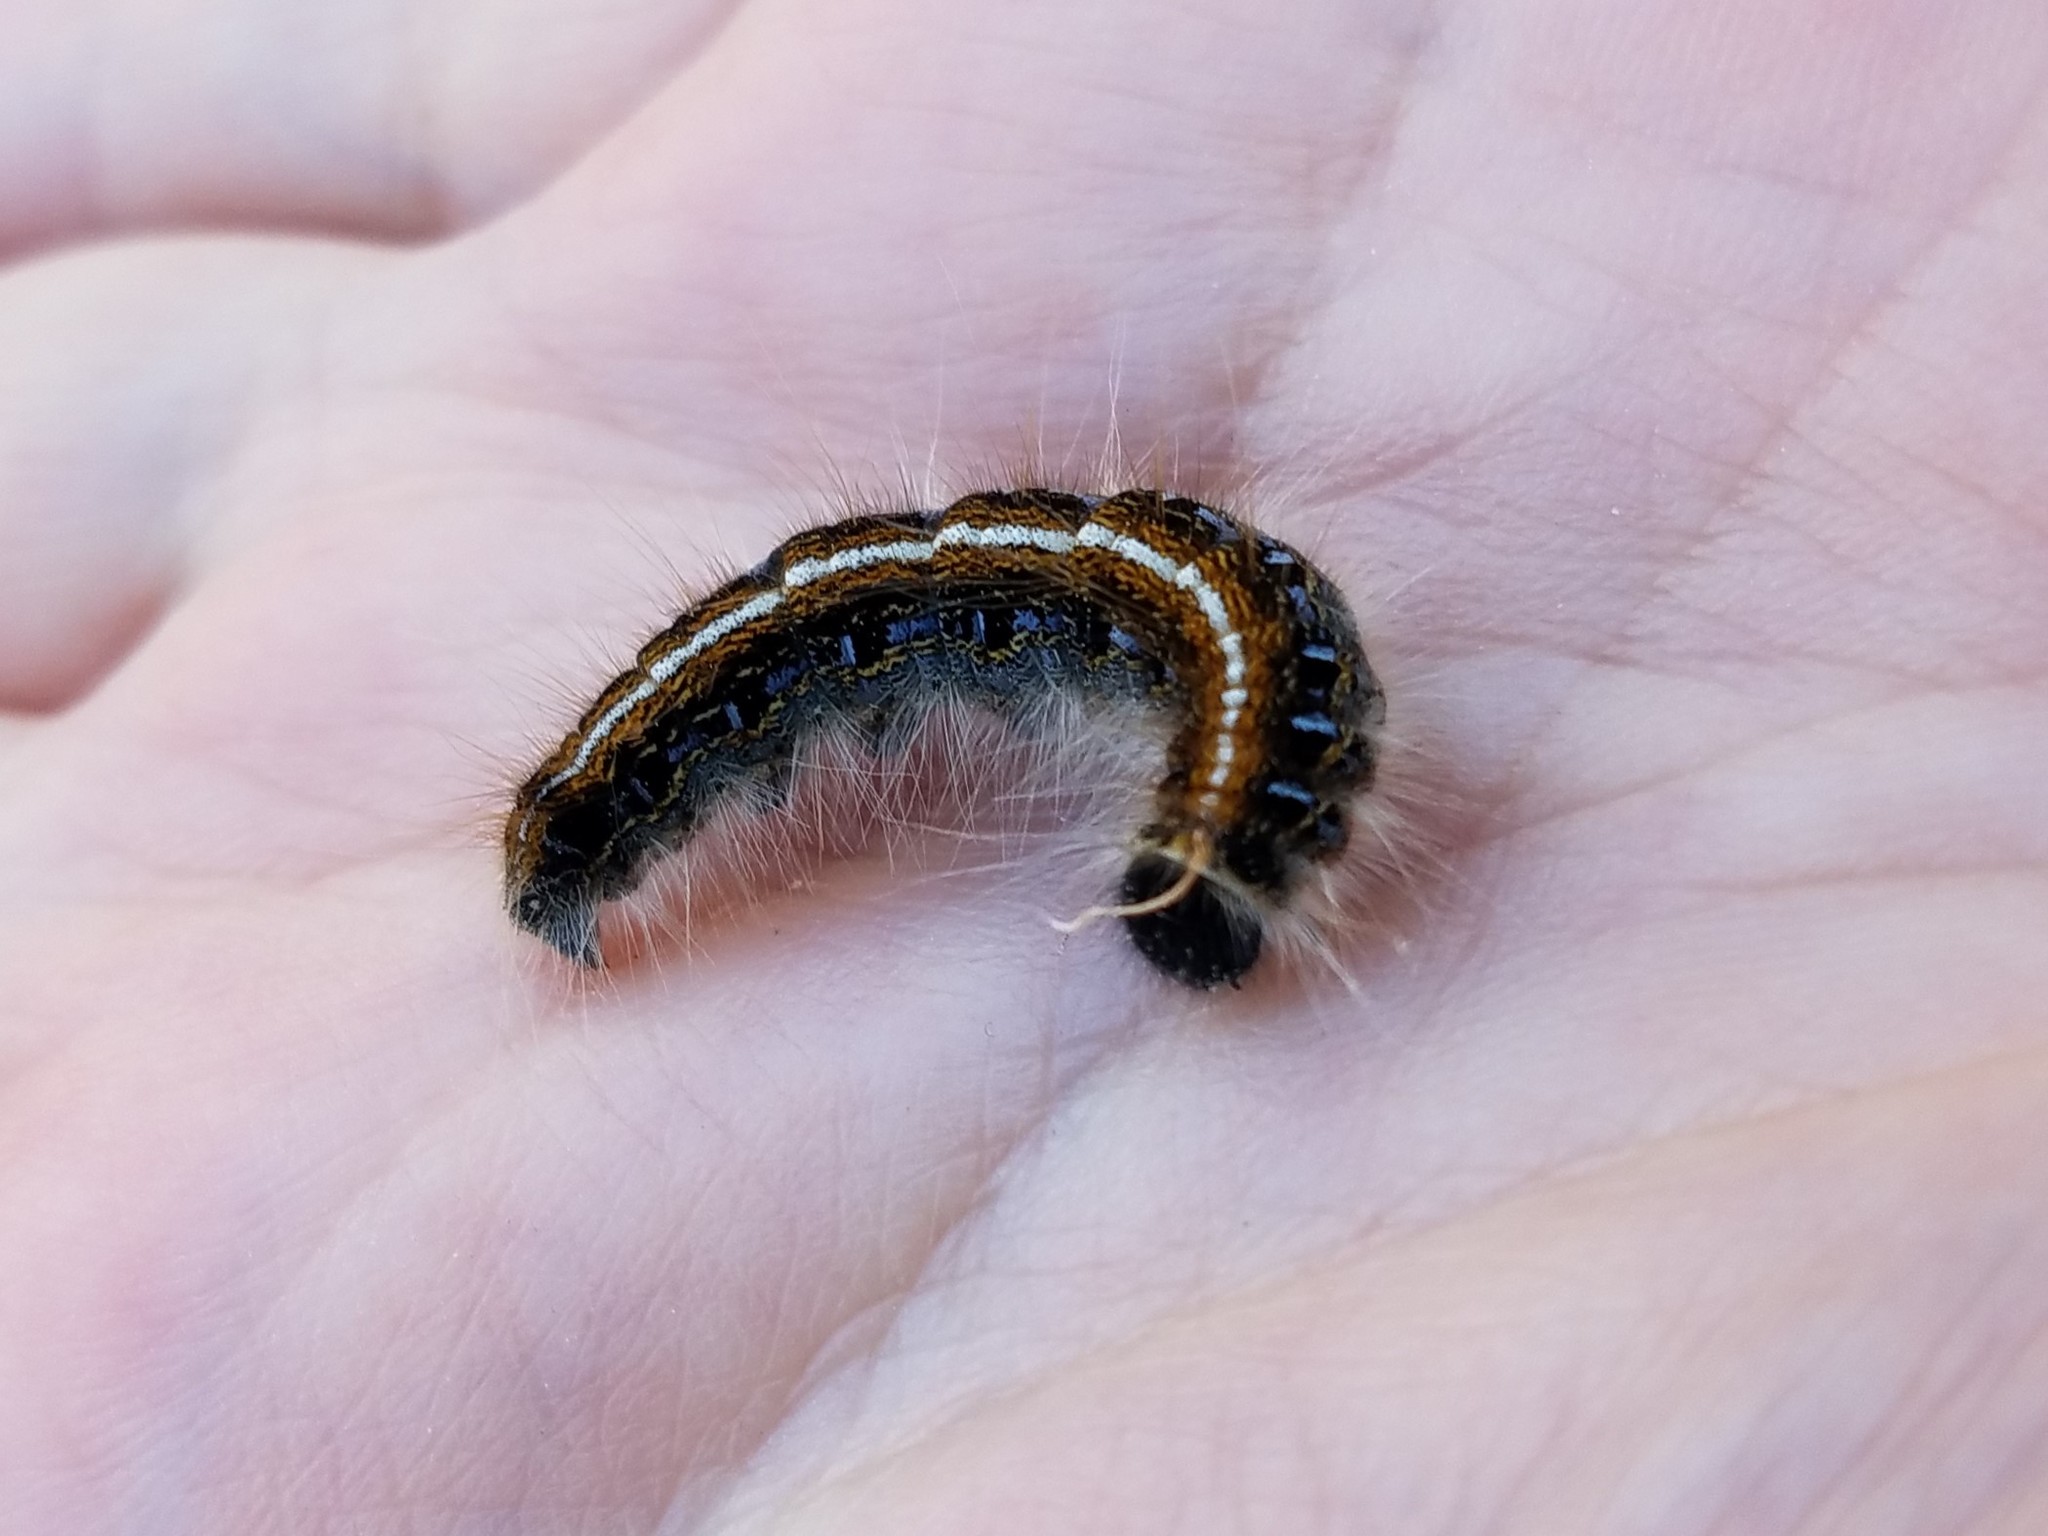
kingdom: Animalia
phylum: Arthropoda
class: Insecta
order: Lepidoptera
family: Lasiocampidae
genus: Malacosoma
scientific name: Malacosoma americana
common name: Eastern tent caterpillar moth
